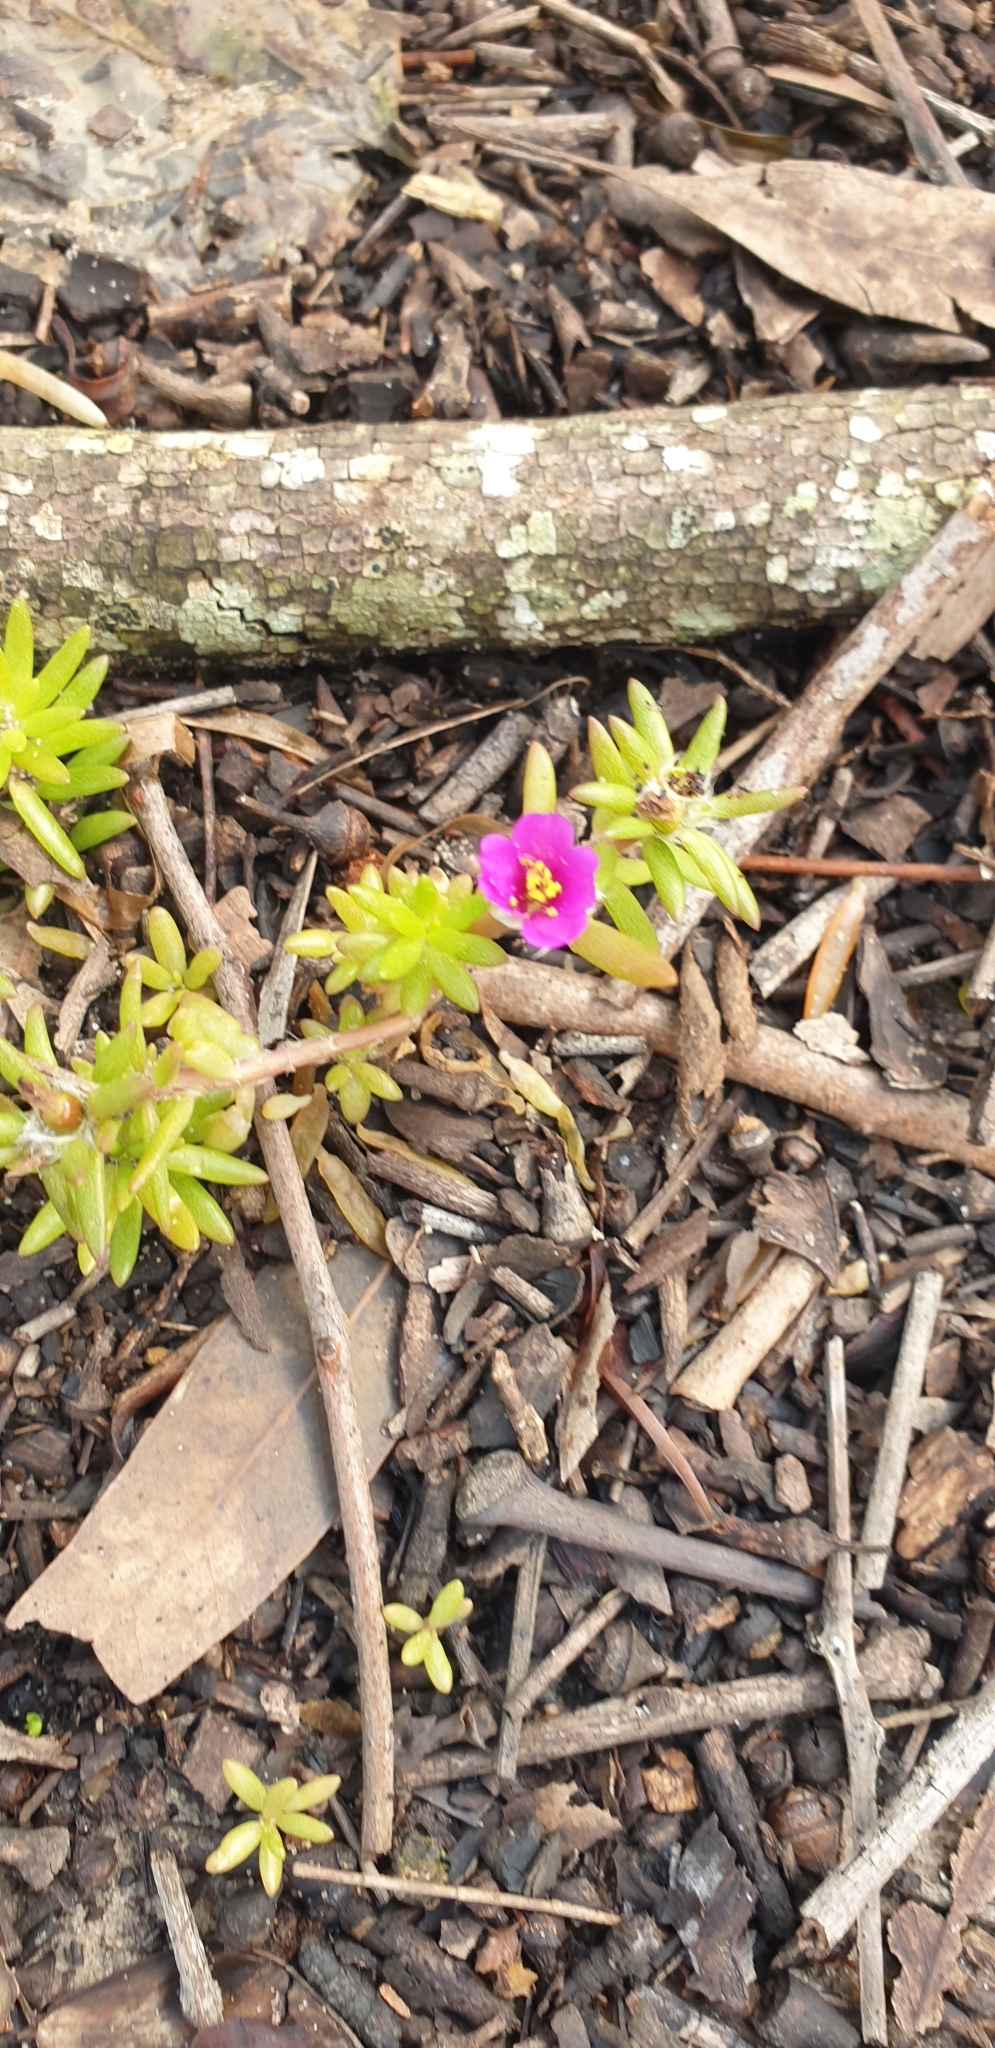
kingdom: Plantae
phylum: Tracheophyta
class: Magnoliopsida
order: Caryophyllales
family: Portulacaceae
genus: Portulaca
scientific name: Portulaca pilosa
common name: Kiss me quick
